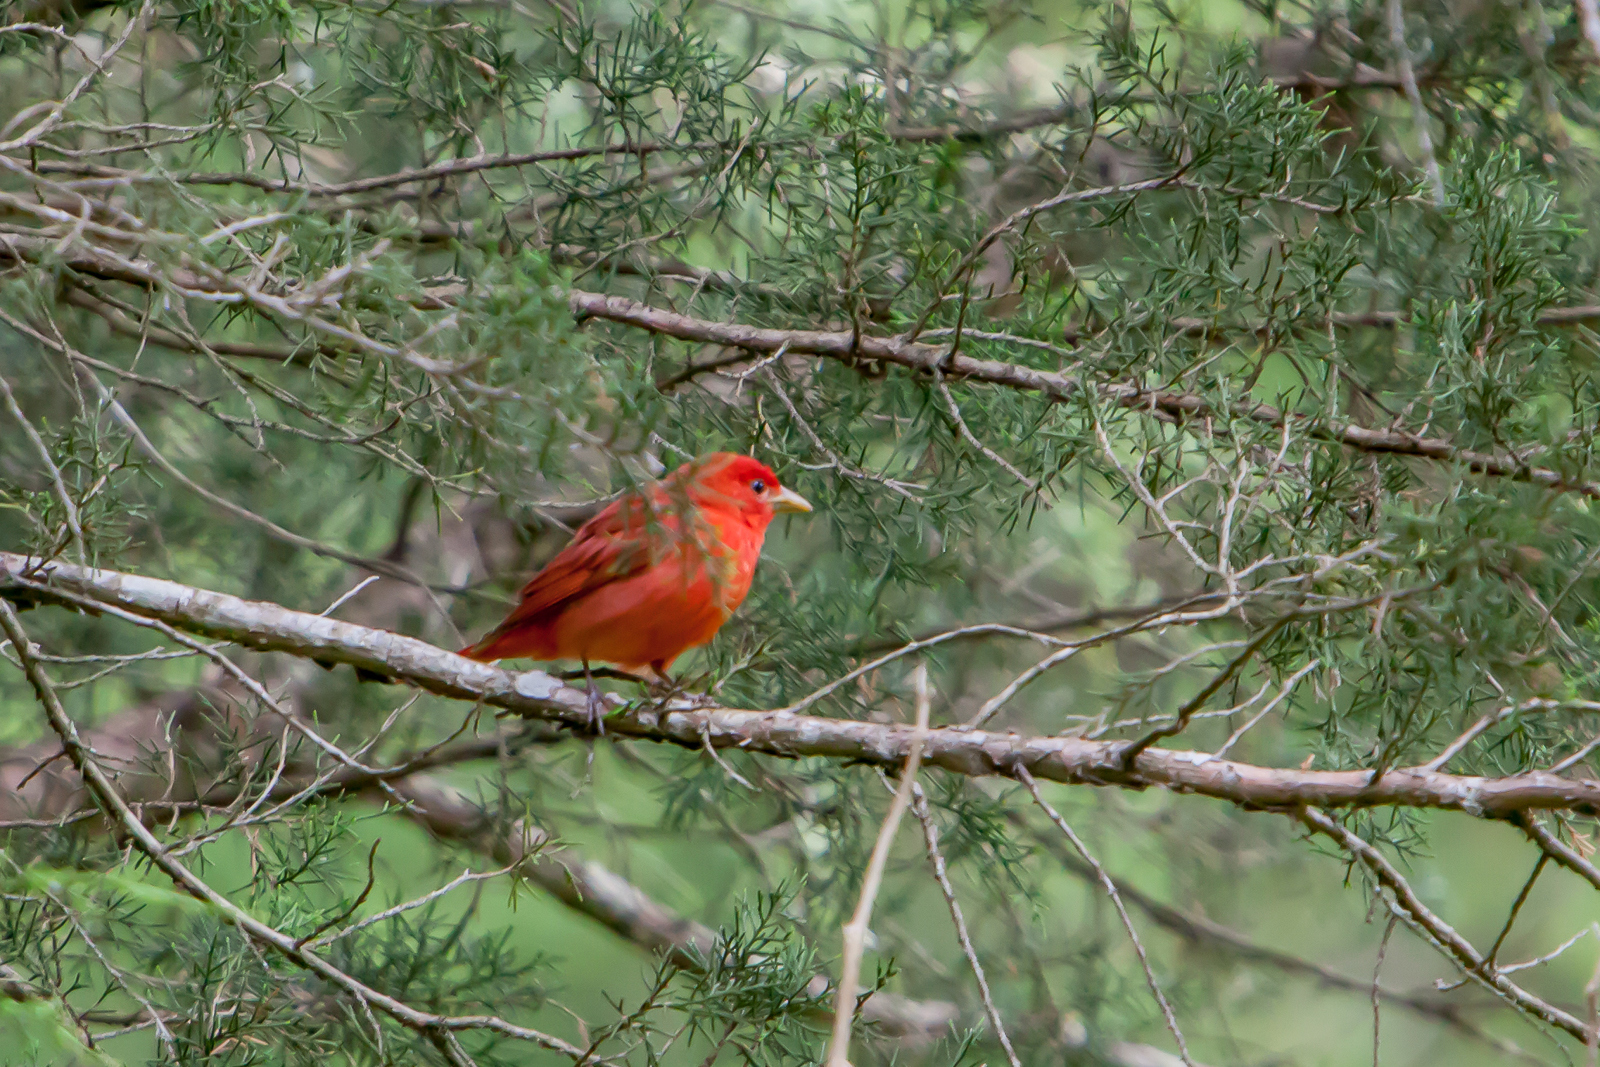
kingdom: Animalia
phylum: Chordata
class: Aves
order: Passeriformes
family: Cardinalidae
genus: Piranga
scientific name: Piranga rubra
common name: Summer tanager
